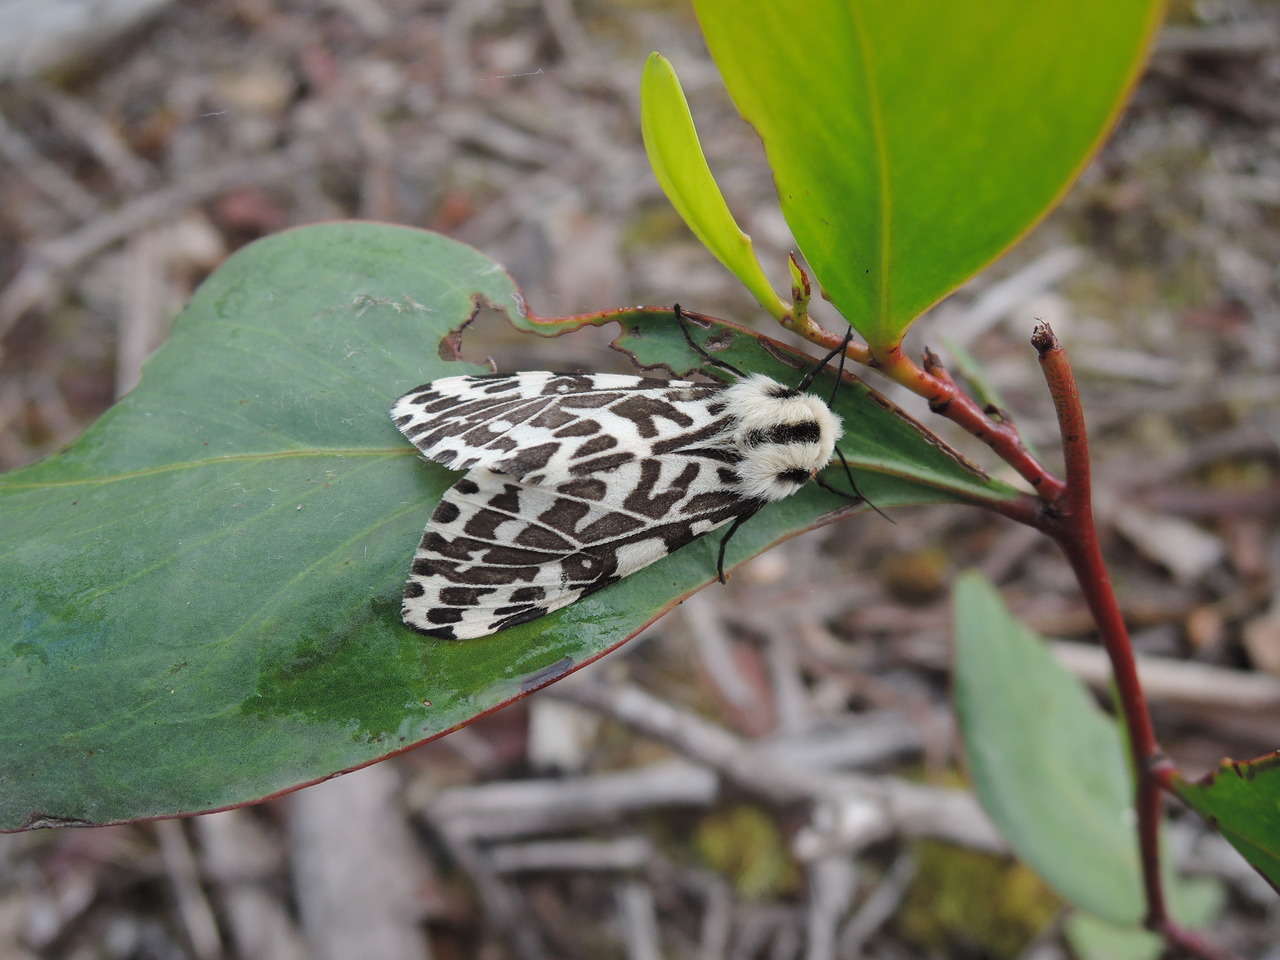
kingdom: Animalia
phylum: Arthropoda
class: Insecta
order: Lepidoptera
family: Erebidae
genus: Ardices
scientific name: Ardices glatignyi
